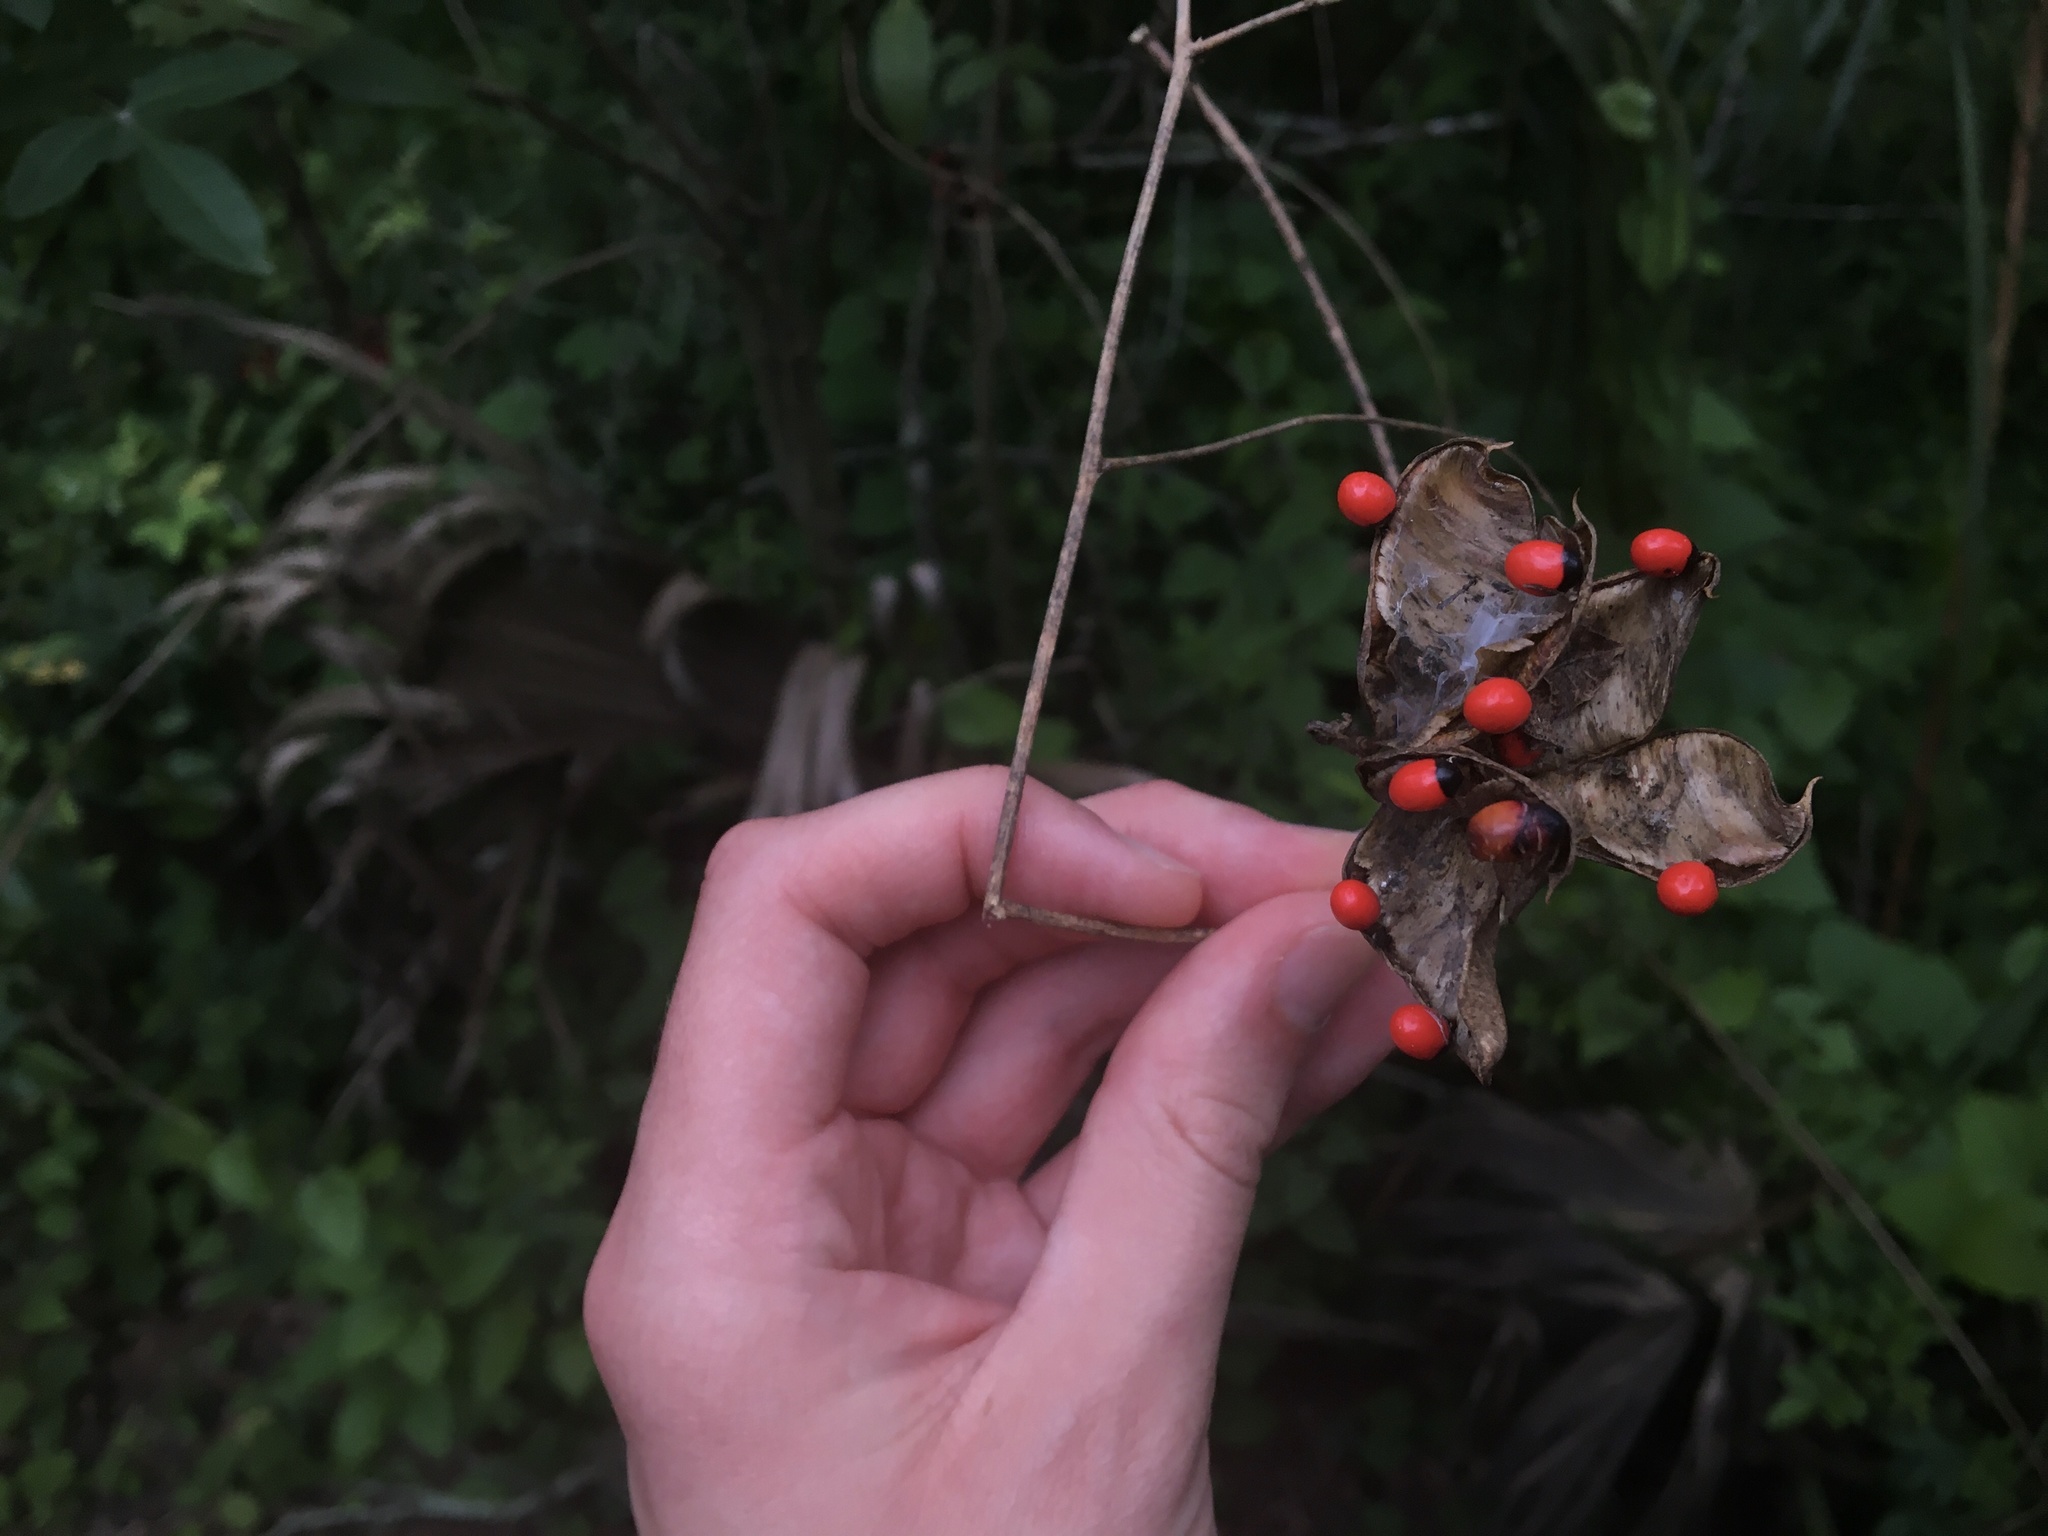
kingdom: Plantae
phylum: Tracheophyta
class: Magnoliopsida
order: Fabales
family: Fabaceae
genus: Abrus
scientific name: Abrus precatorius
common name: Rosarypea
